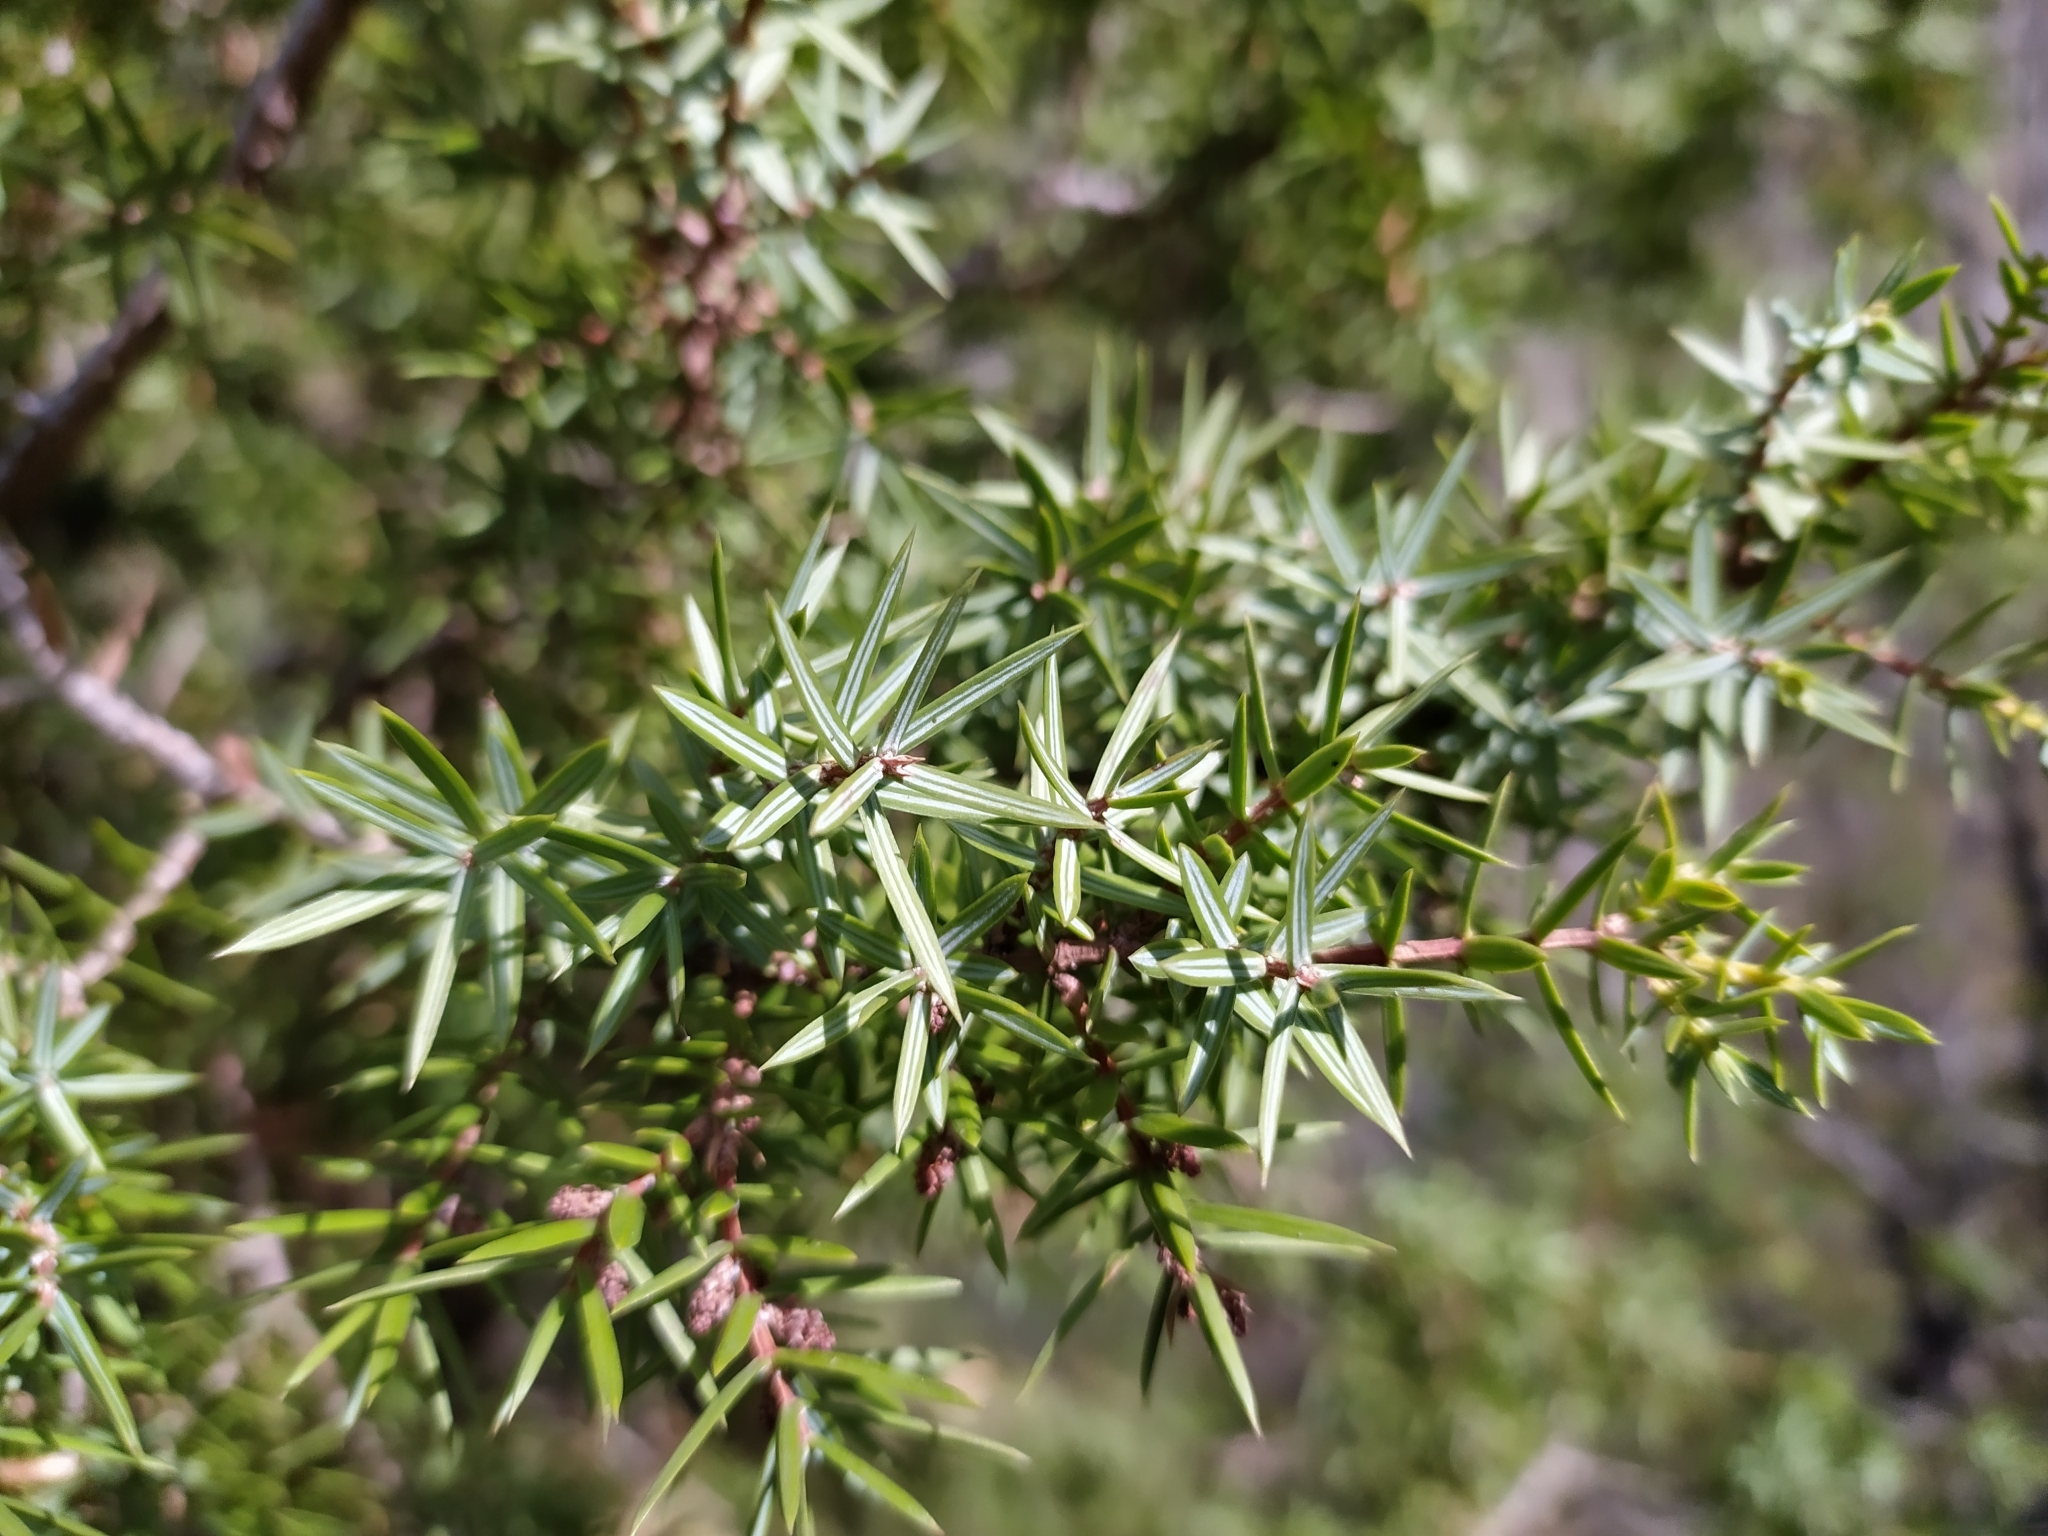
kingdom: Plantae
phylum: Tracheophyta
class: Pinopsida
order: Pinales
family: Cupressaceae
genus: Juniperus
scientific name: Juniperus oxycedrus
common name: Prickly juniper
